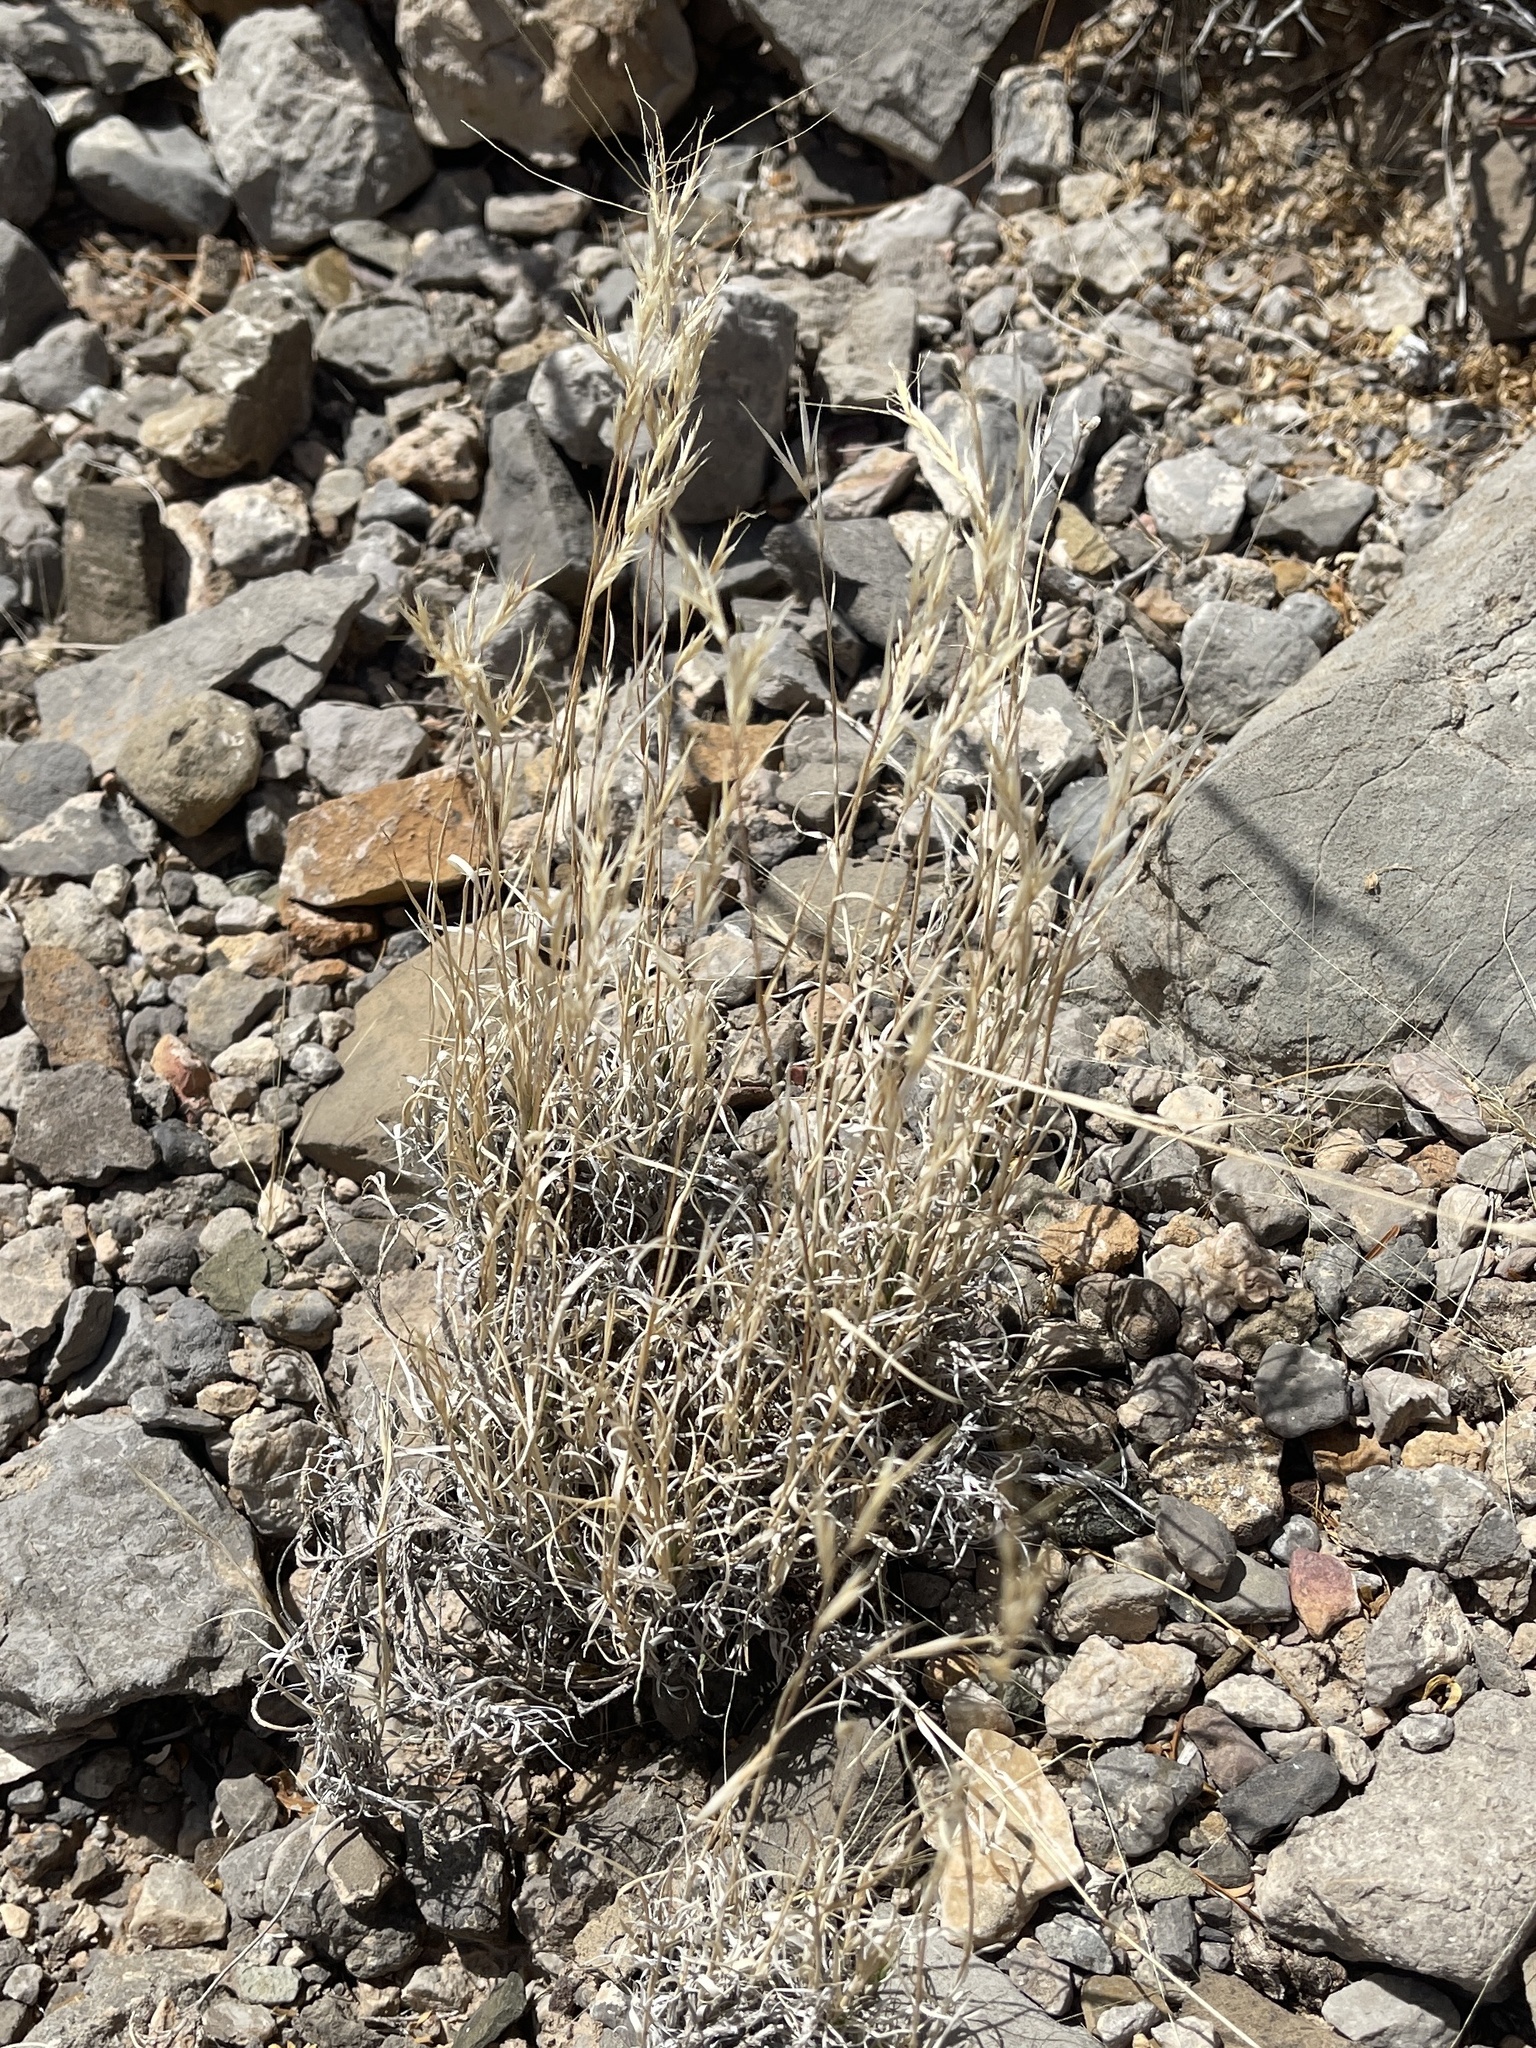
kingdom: Plantae
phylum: Tracheophyta
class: Liliopsida
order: Poales
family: Poaceae
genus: Dasyochloa
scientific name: Dasyochloa pulchella
